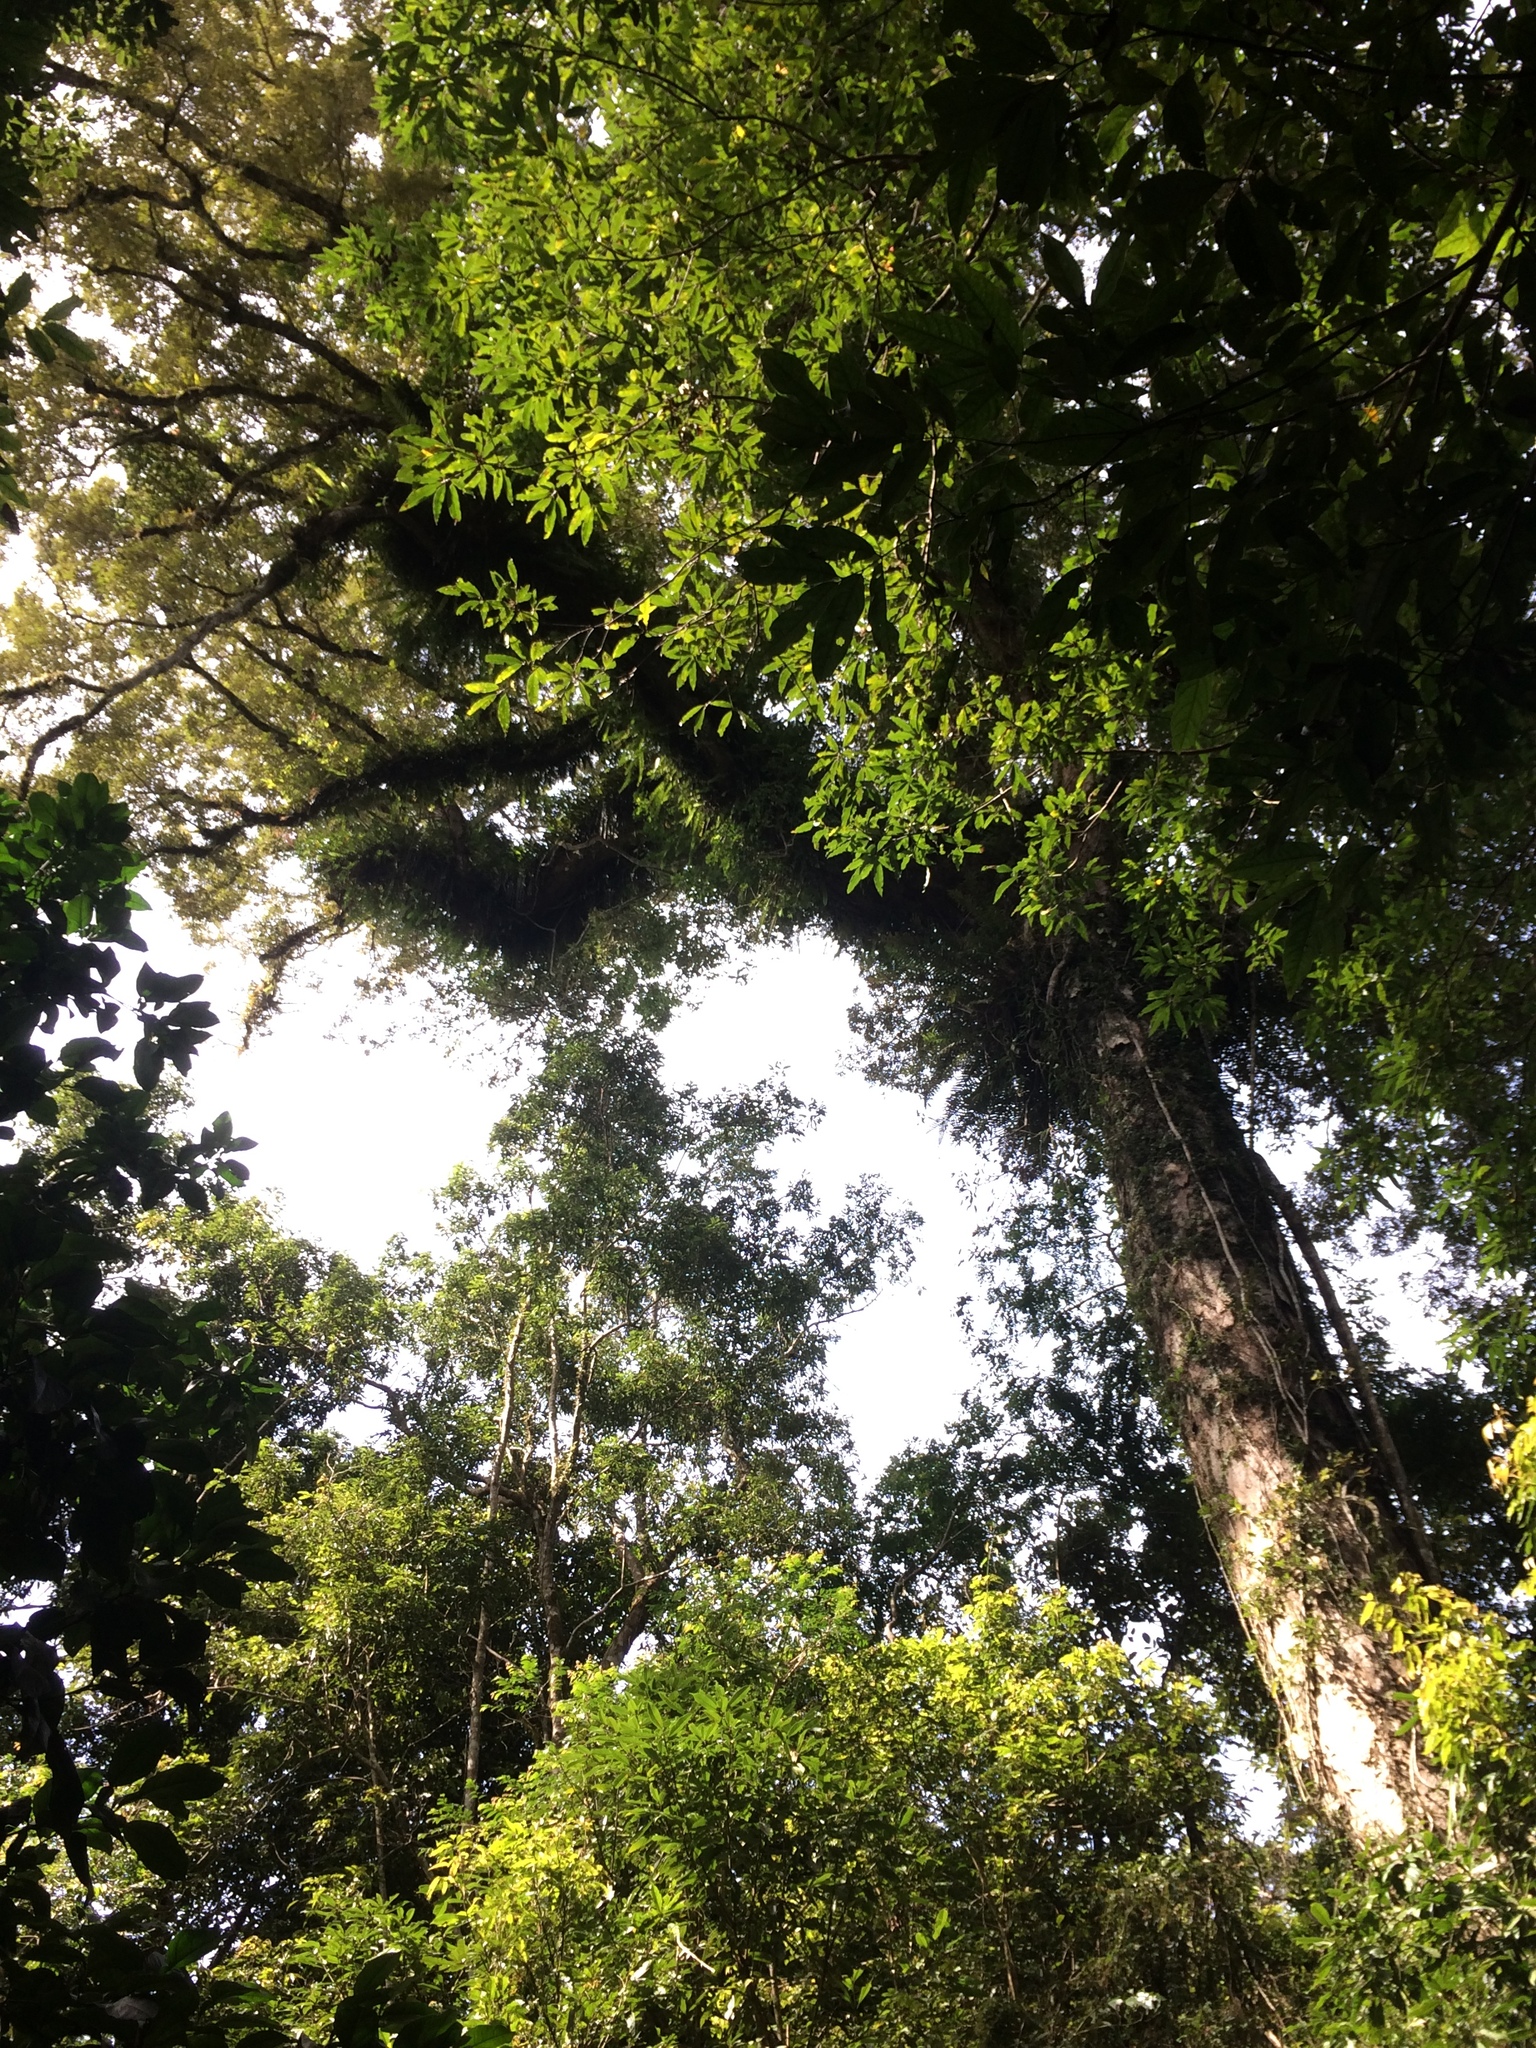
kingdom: Plantae
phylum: Tracheophyta
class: Magnoliopsida
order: Fagales
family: Fagaceae
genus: Quercus
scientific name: Quercus gilva
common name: Redbark oak
